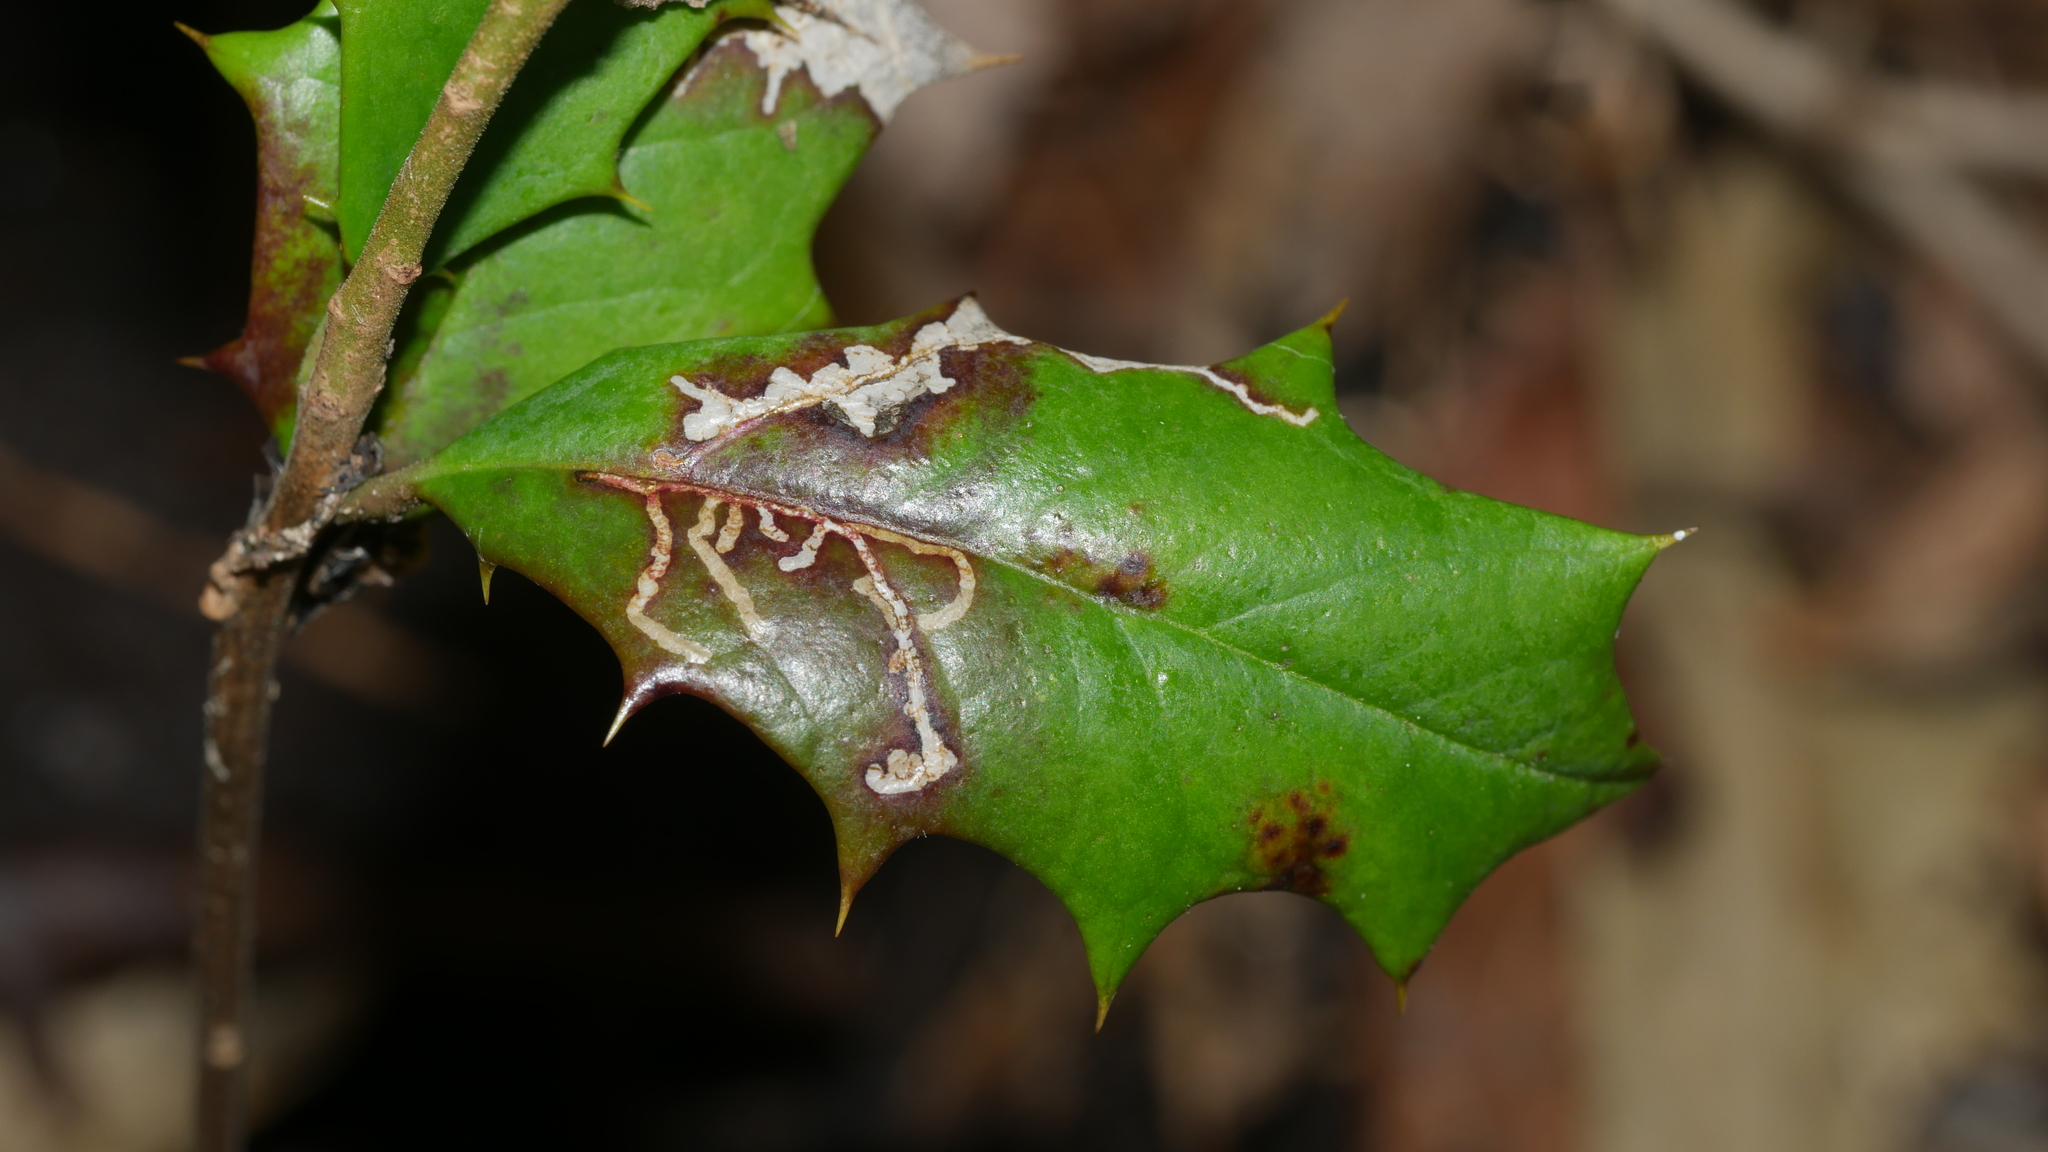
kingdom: Animalia
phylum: Arthropoda
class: Insecta
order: Lepidoptera
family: Tortricidae
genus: Rhopobota
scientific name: Rhopobota
